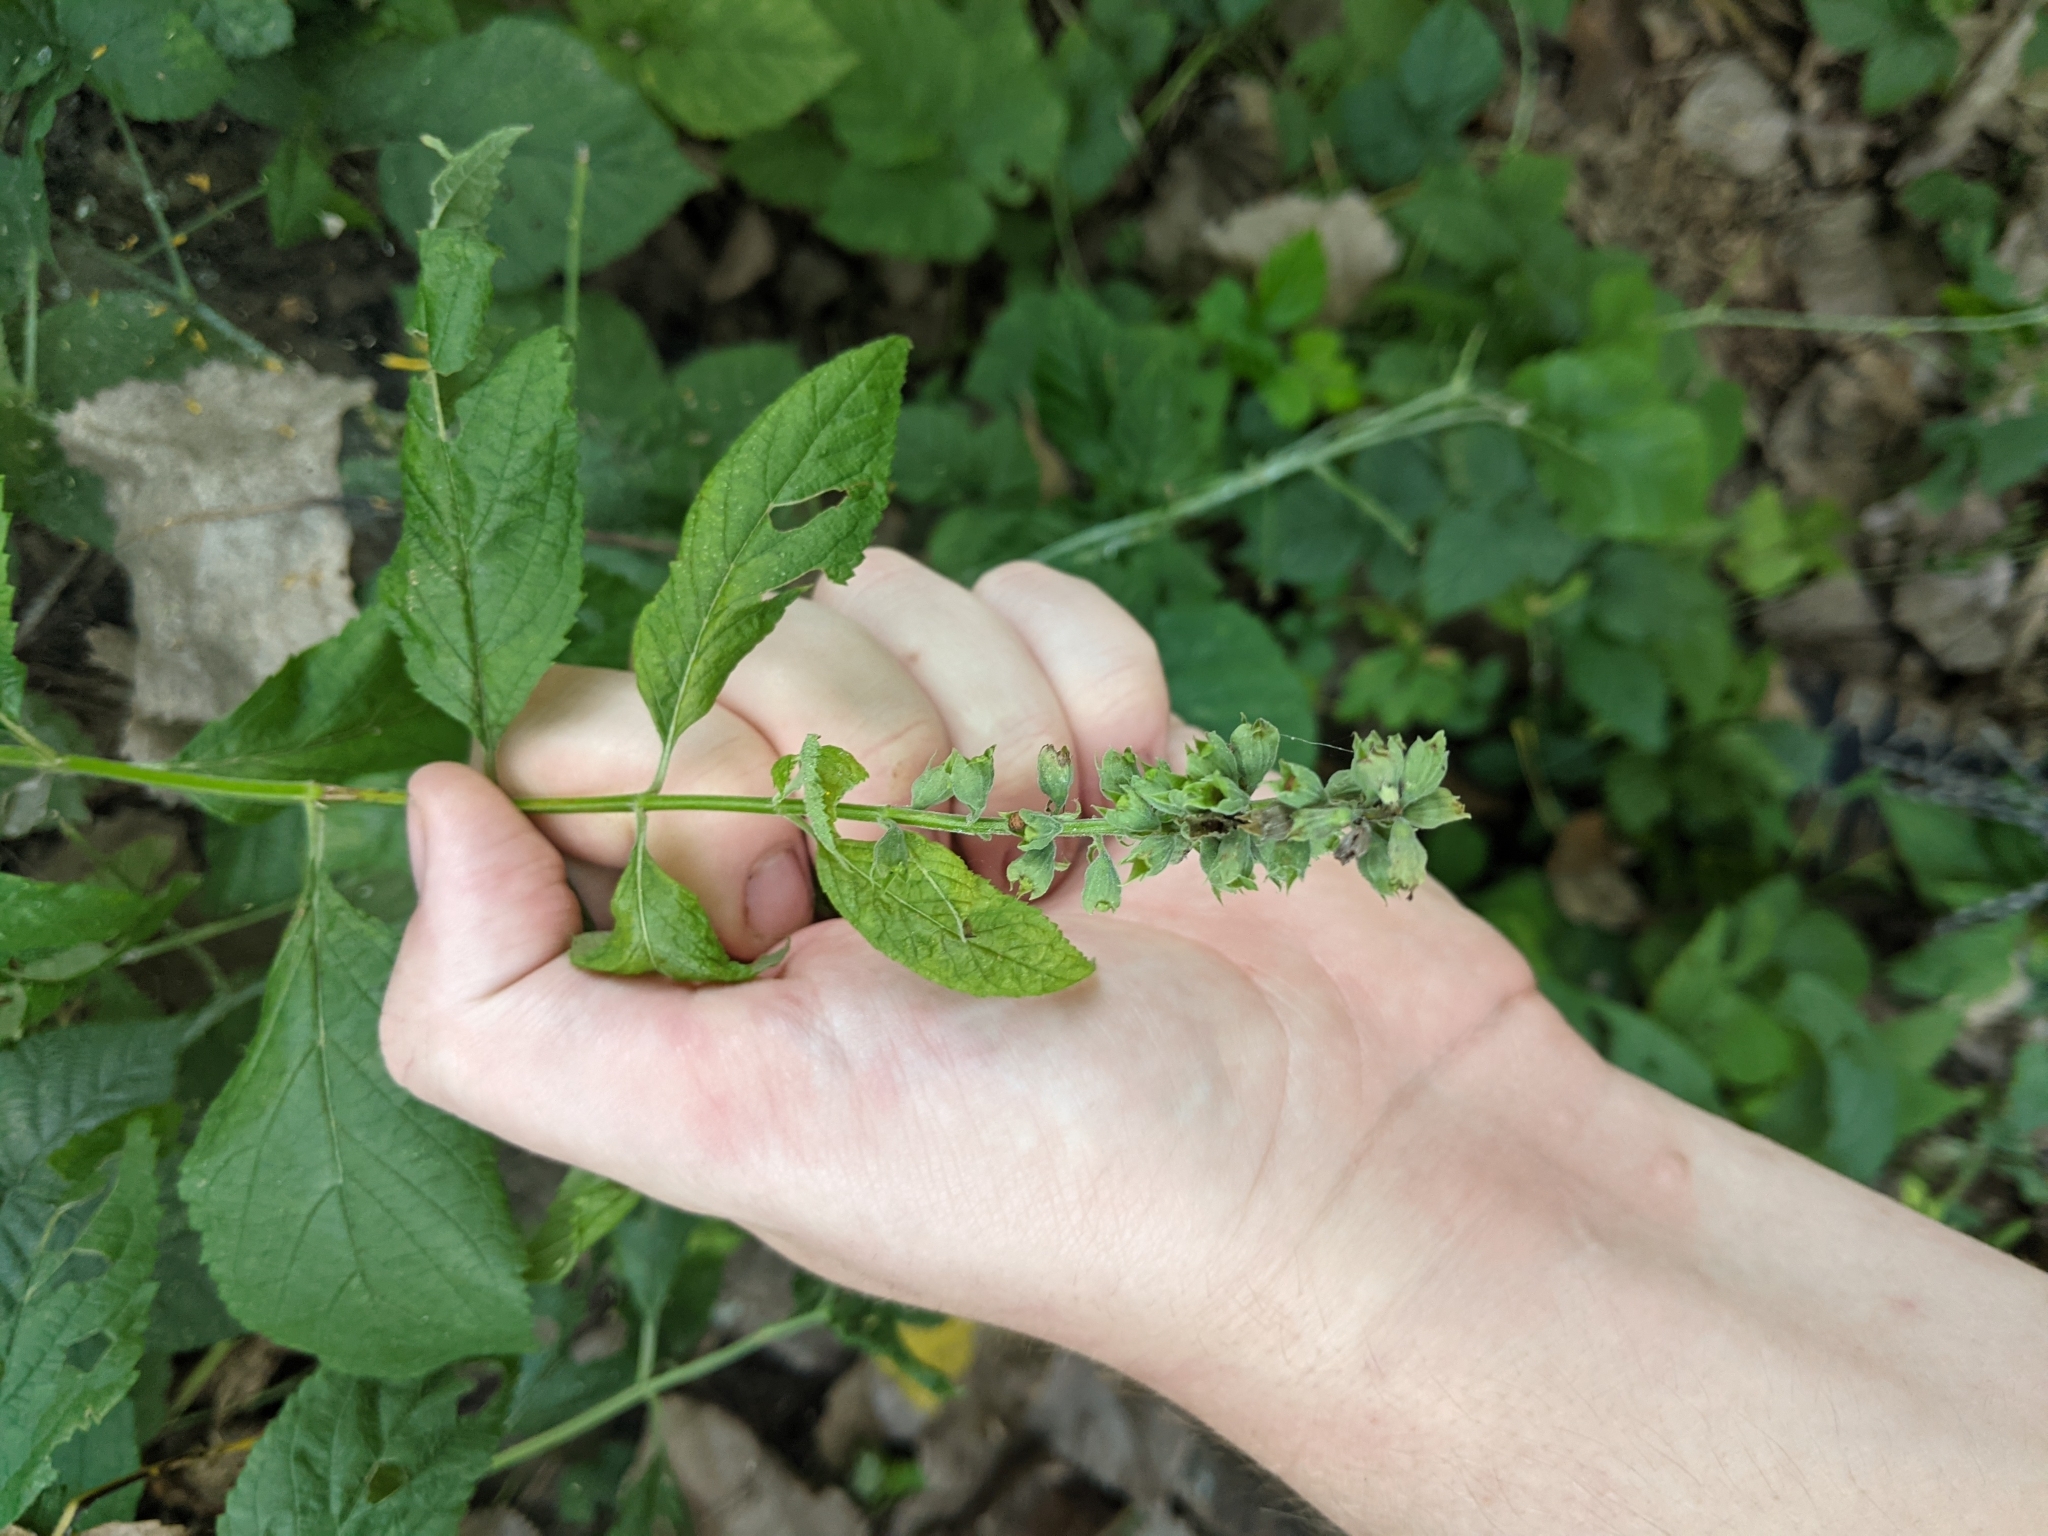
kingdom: Plantae
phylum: Tracheophyta
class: Magnoliopsida
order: Lamiales
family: Lamiaceae
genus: Teucrium
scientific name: Teucrium canadense
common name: American germander
